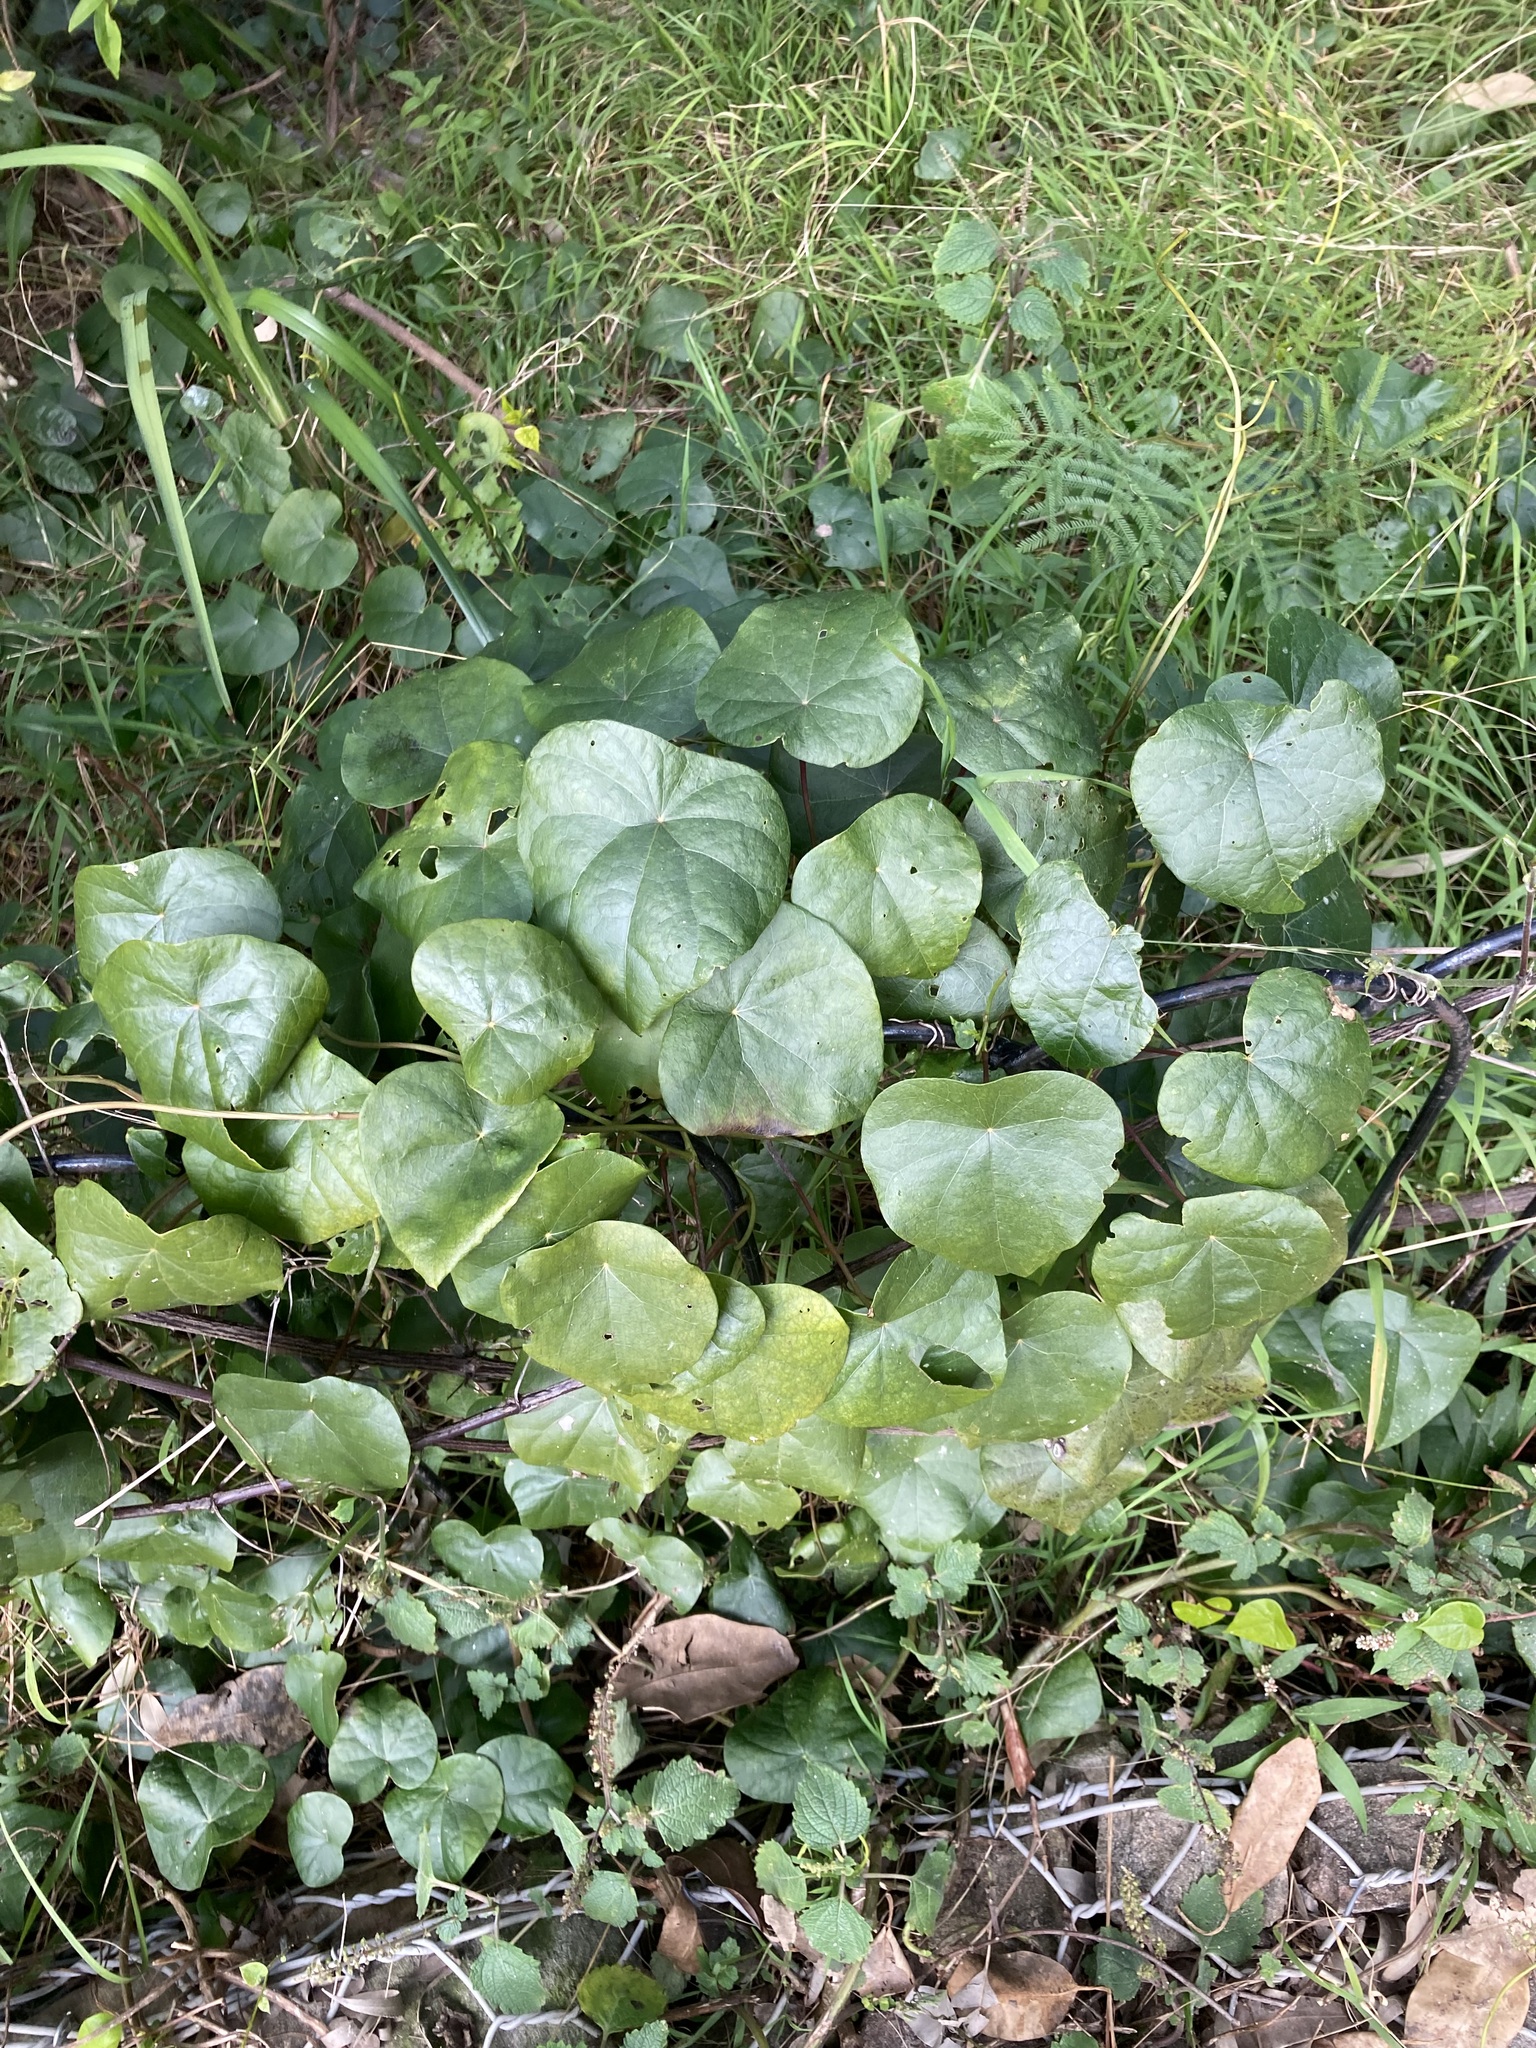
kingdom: Plantae
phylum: Tracheophyta
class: Magnoliopsida
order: Ranunculales
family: Menispermaceae
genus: Stephania
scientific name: Stephania japonica
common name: Snake vine
